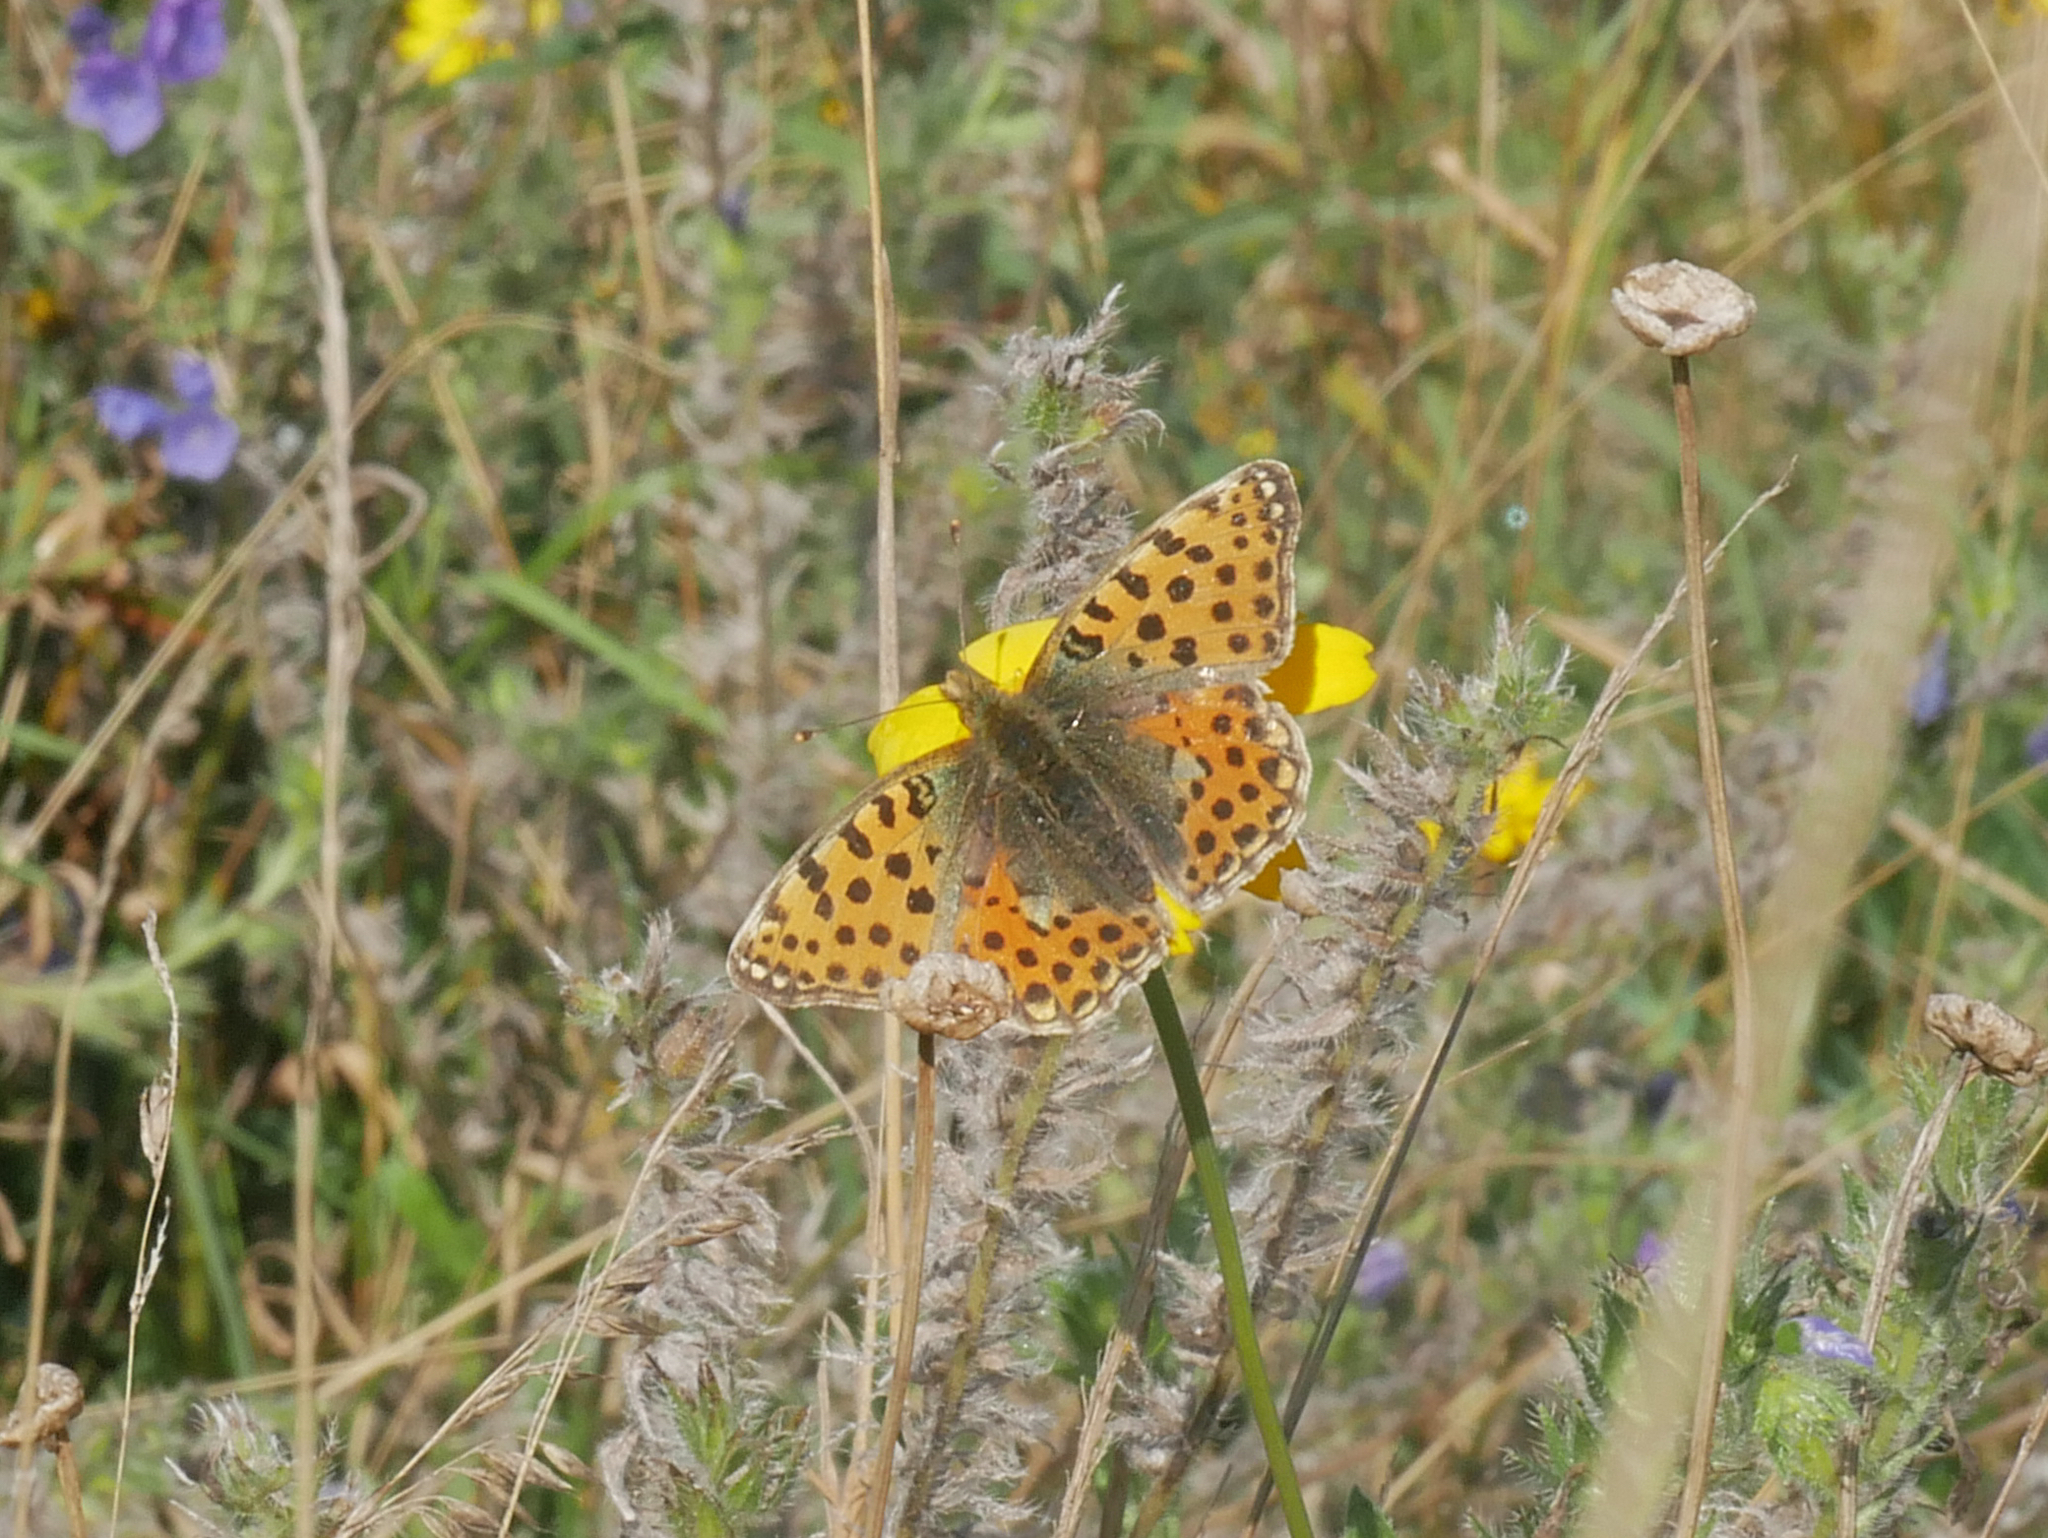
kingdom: Animalia
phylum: Arthropoda
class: Insecta
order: Lepidoptera
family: Nymphalidae
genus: Issoria
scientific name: Issoria lathonia
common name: Queen of spain fritillary
